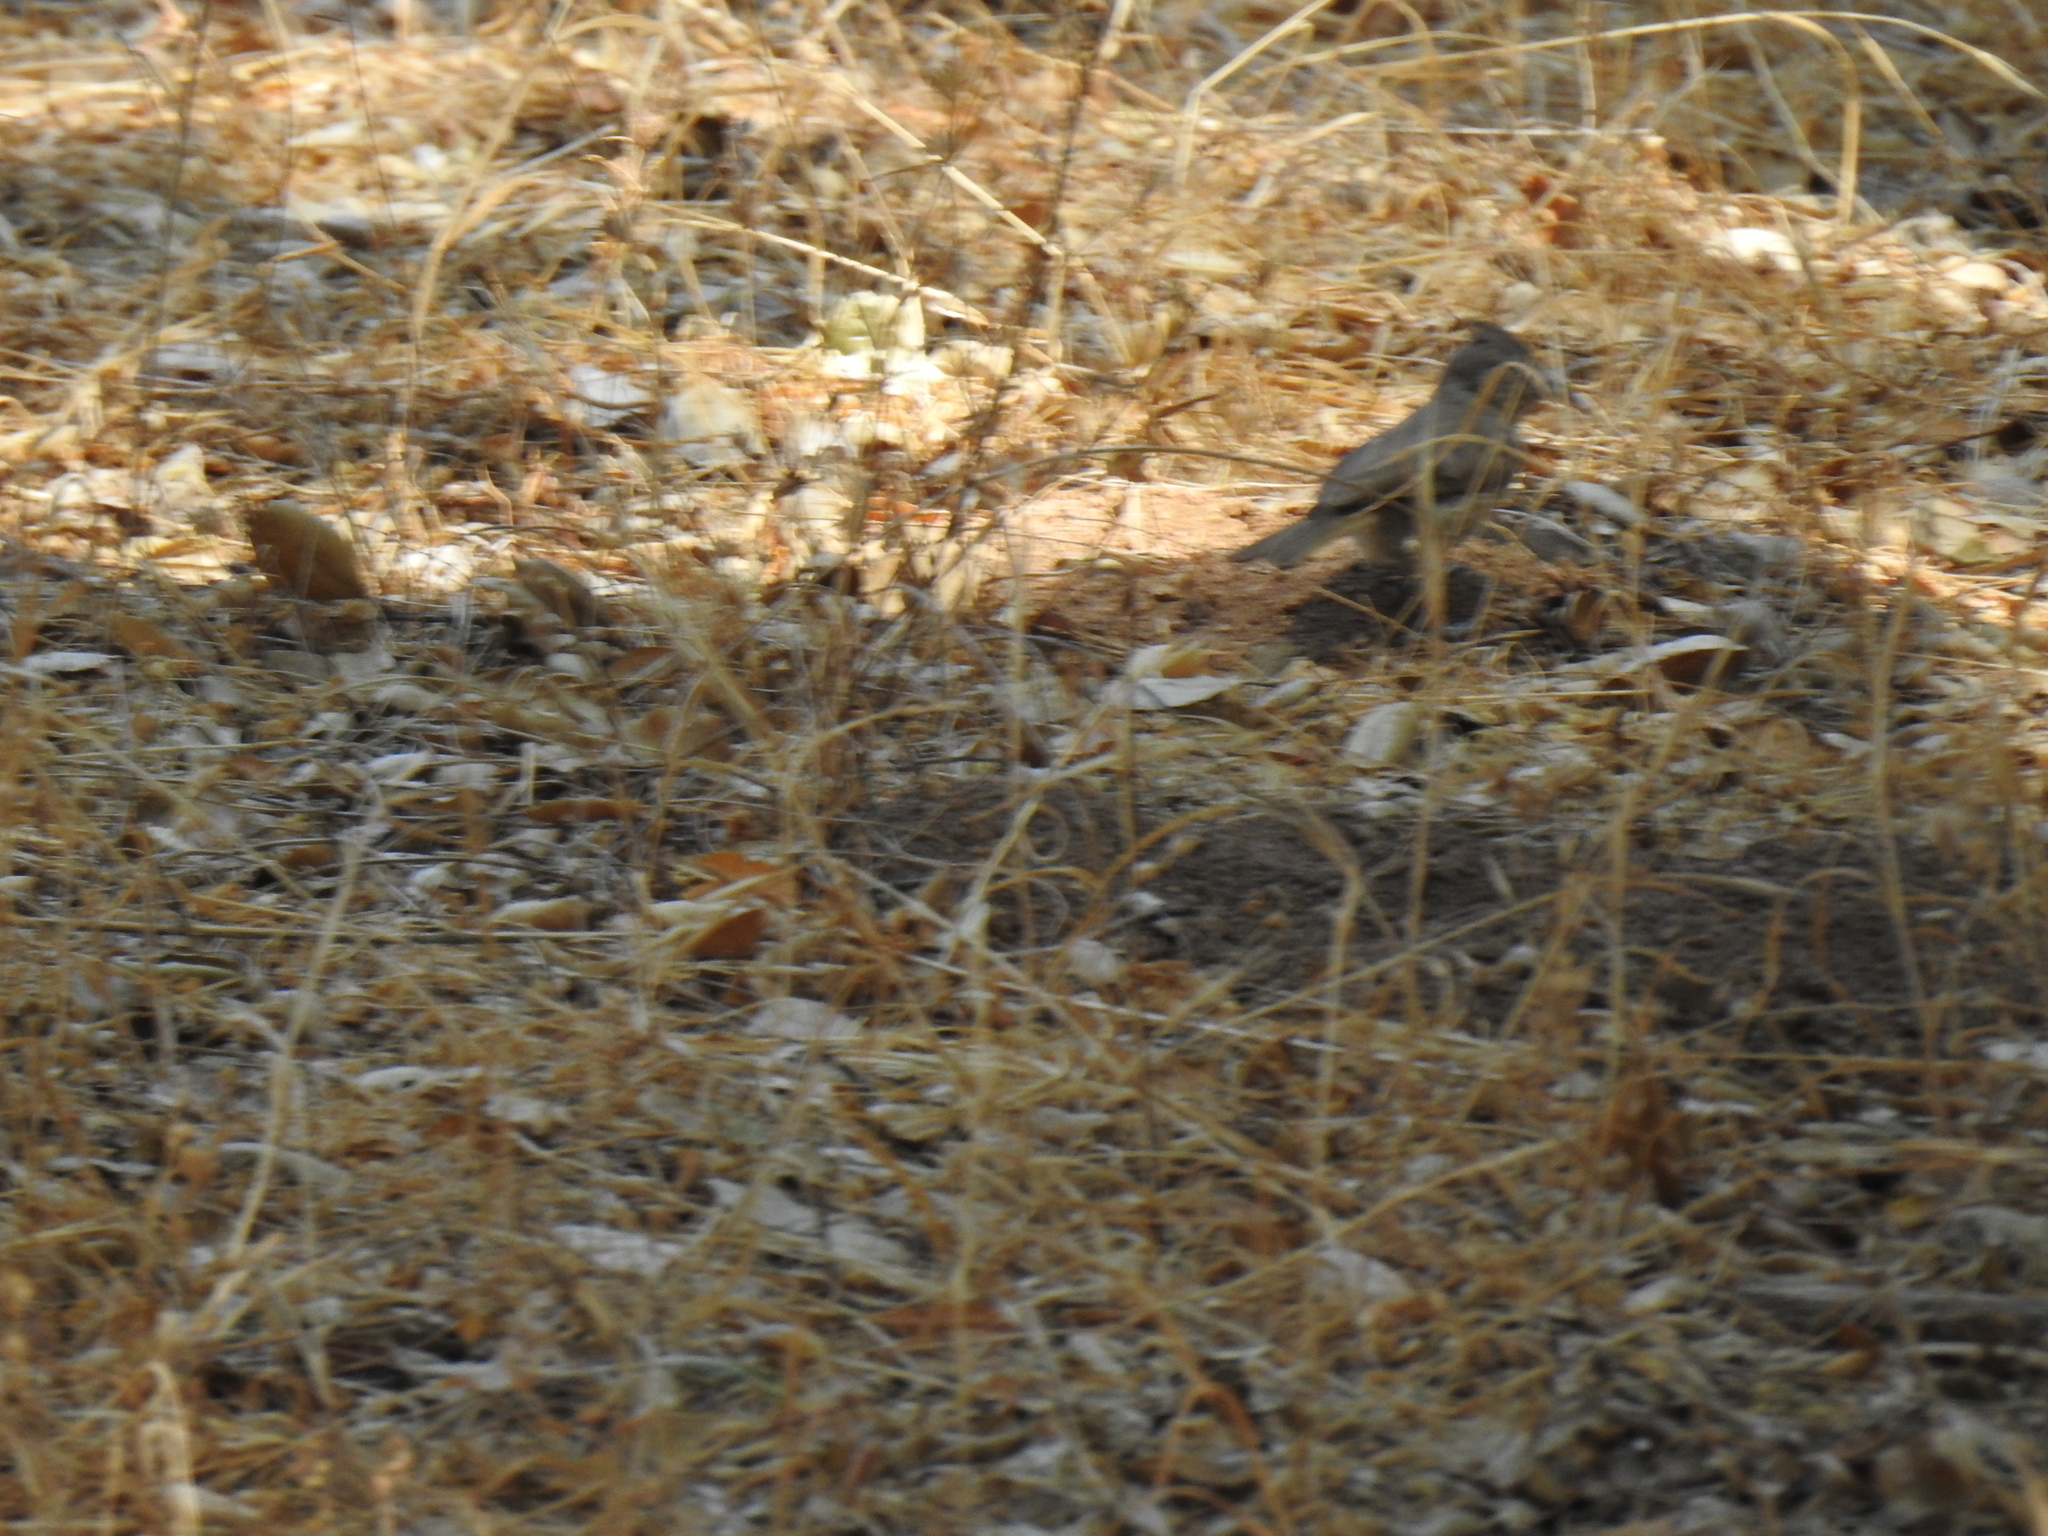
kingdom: Animalia
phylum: Chordata
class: Aves
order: Passeriformes
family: Paridae
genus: Baeolophus
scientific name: Baeolophus inornatus
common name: Oak titmouse
